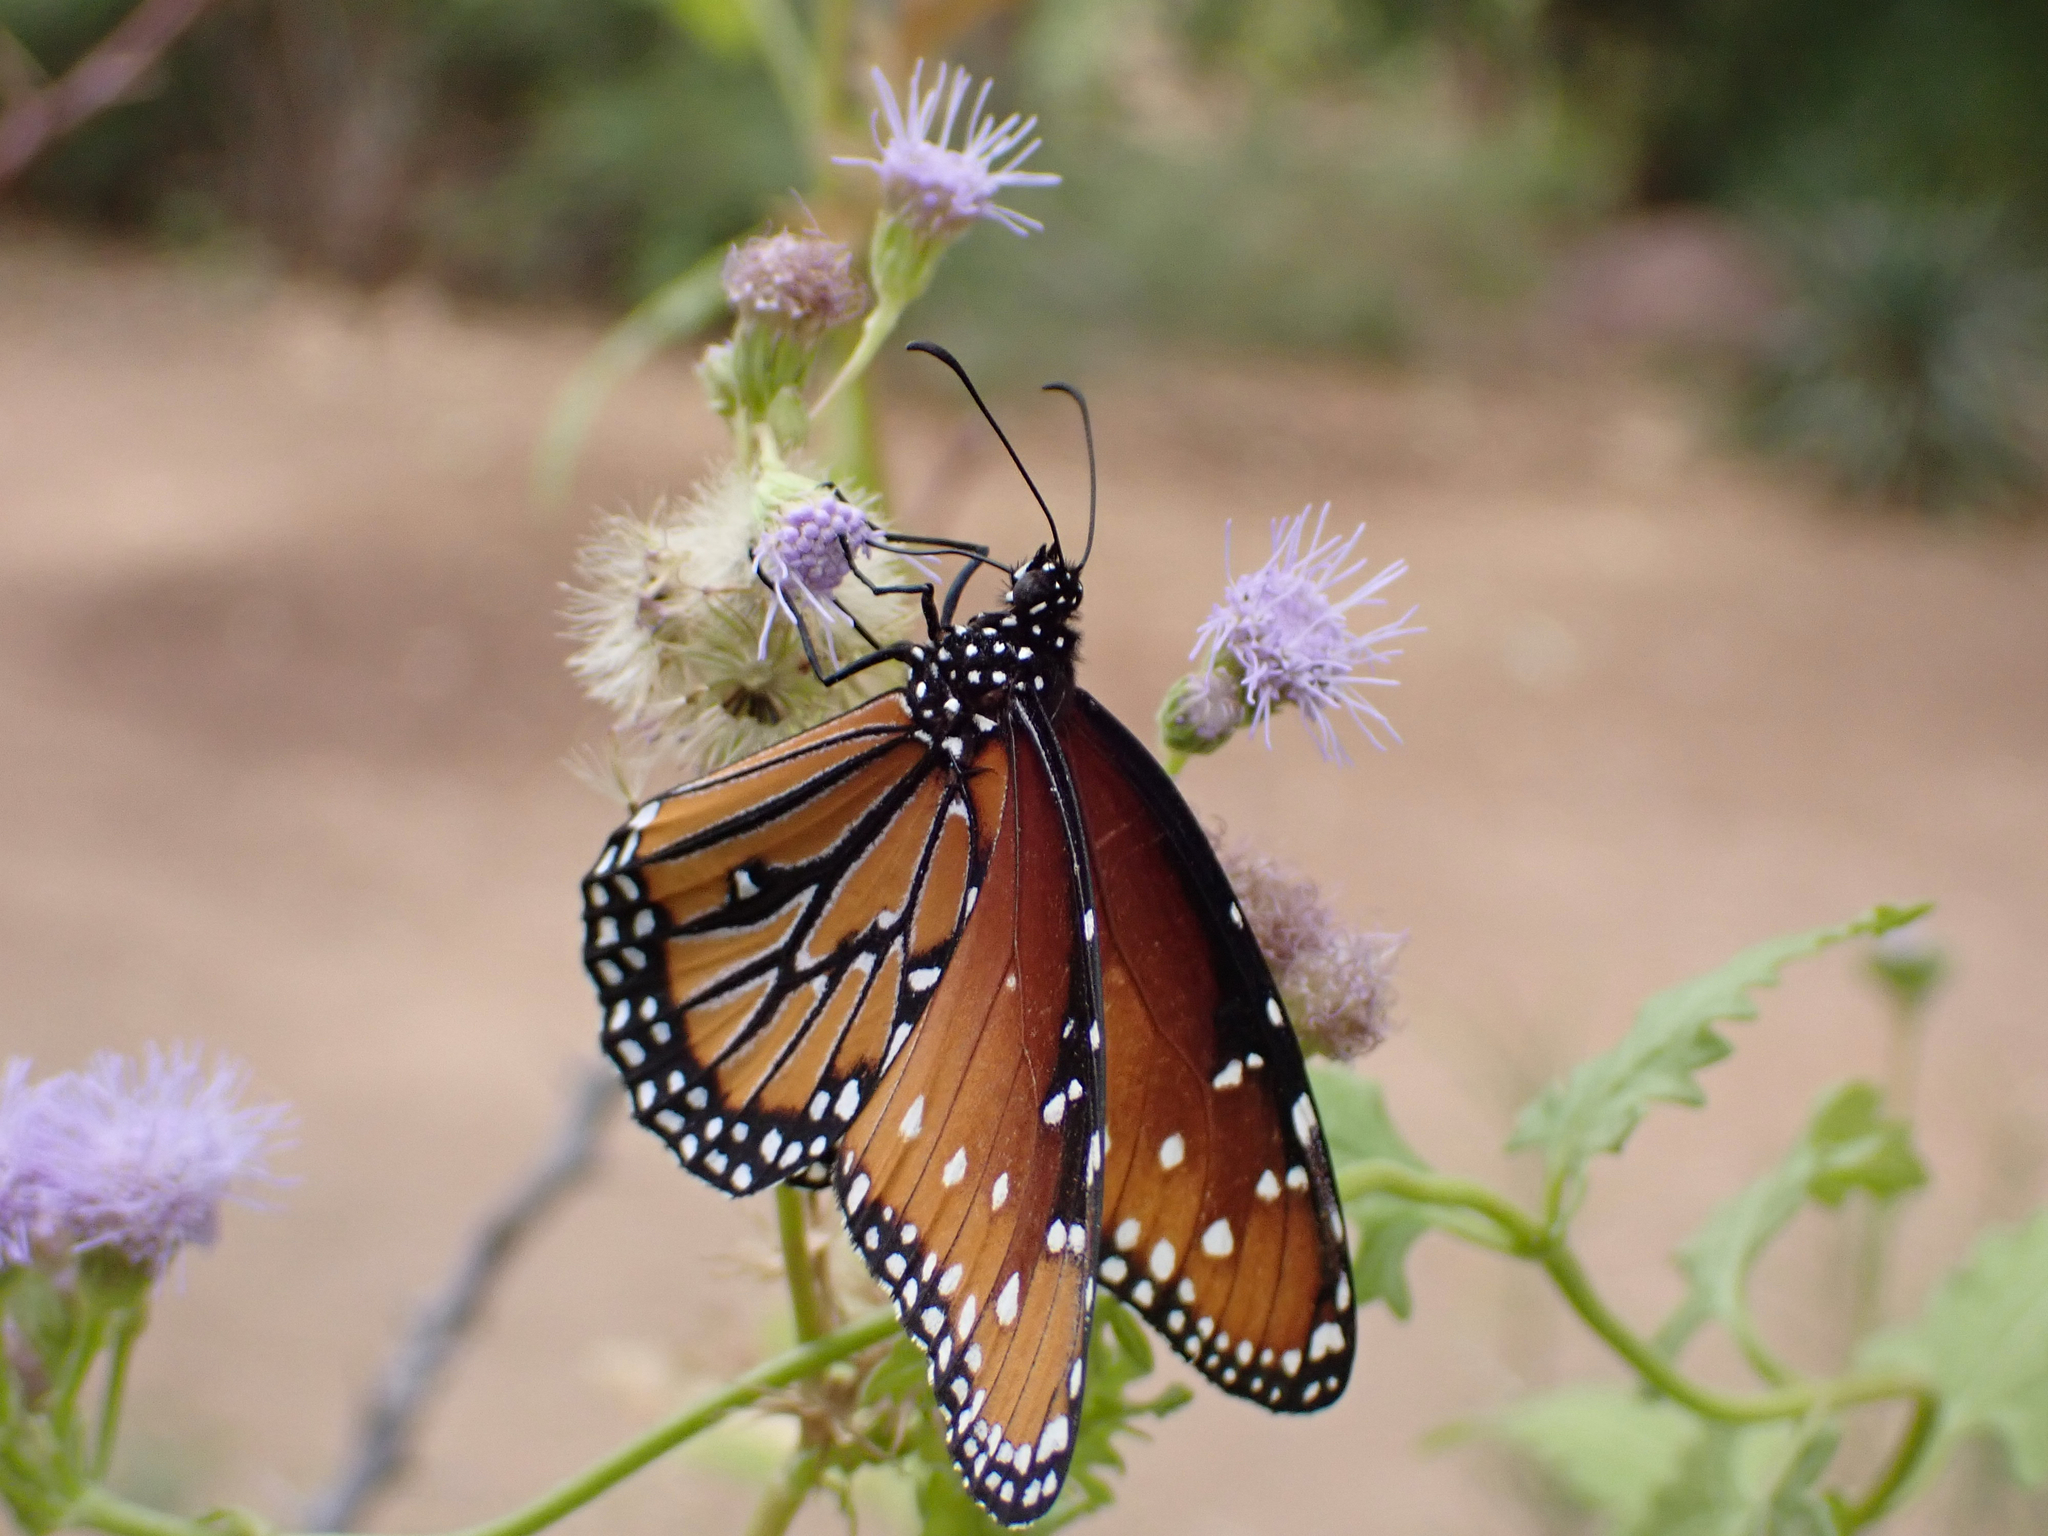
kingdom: Animalia
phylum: Arthropoda
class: Insecta
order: Lepidoptera
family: Nymphalidae
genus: Danaus
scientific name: Danaus gilippus
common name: Queen
